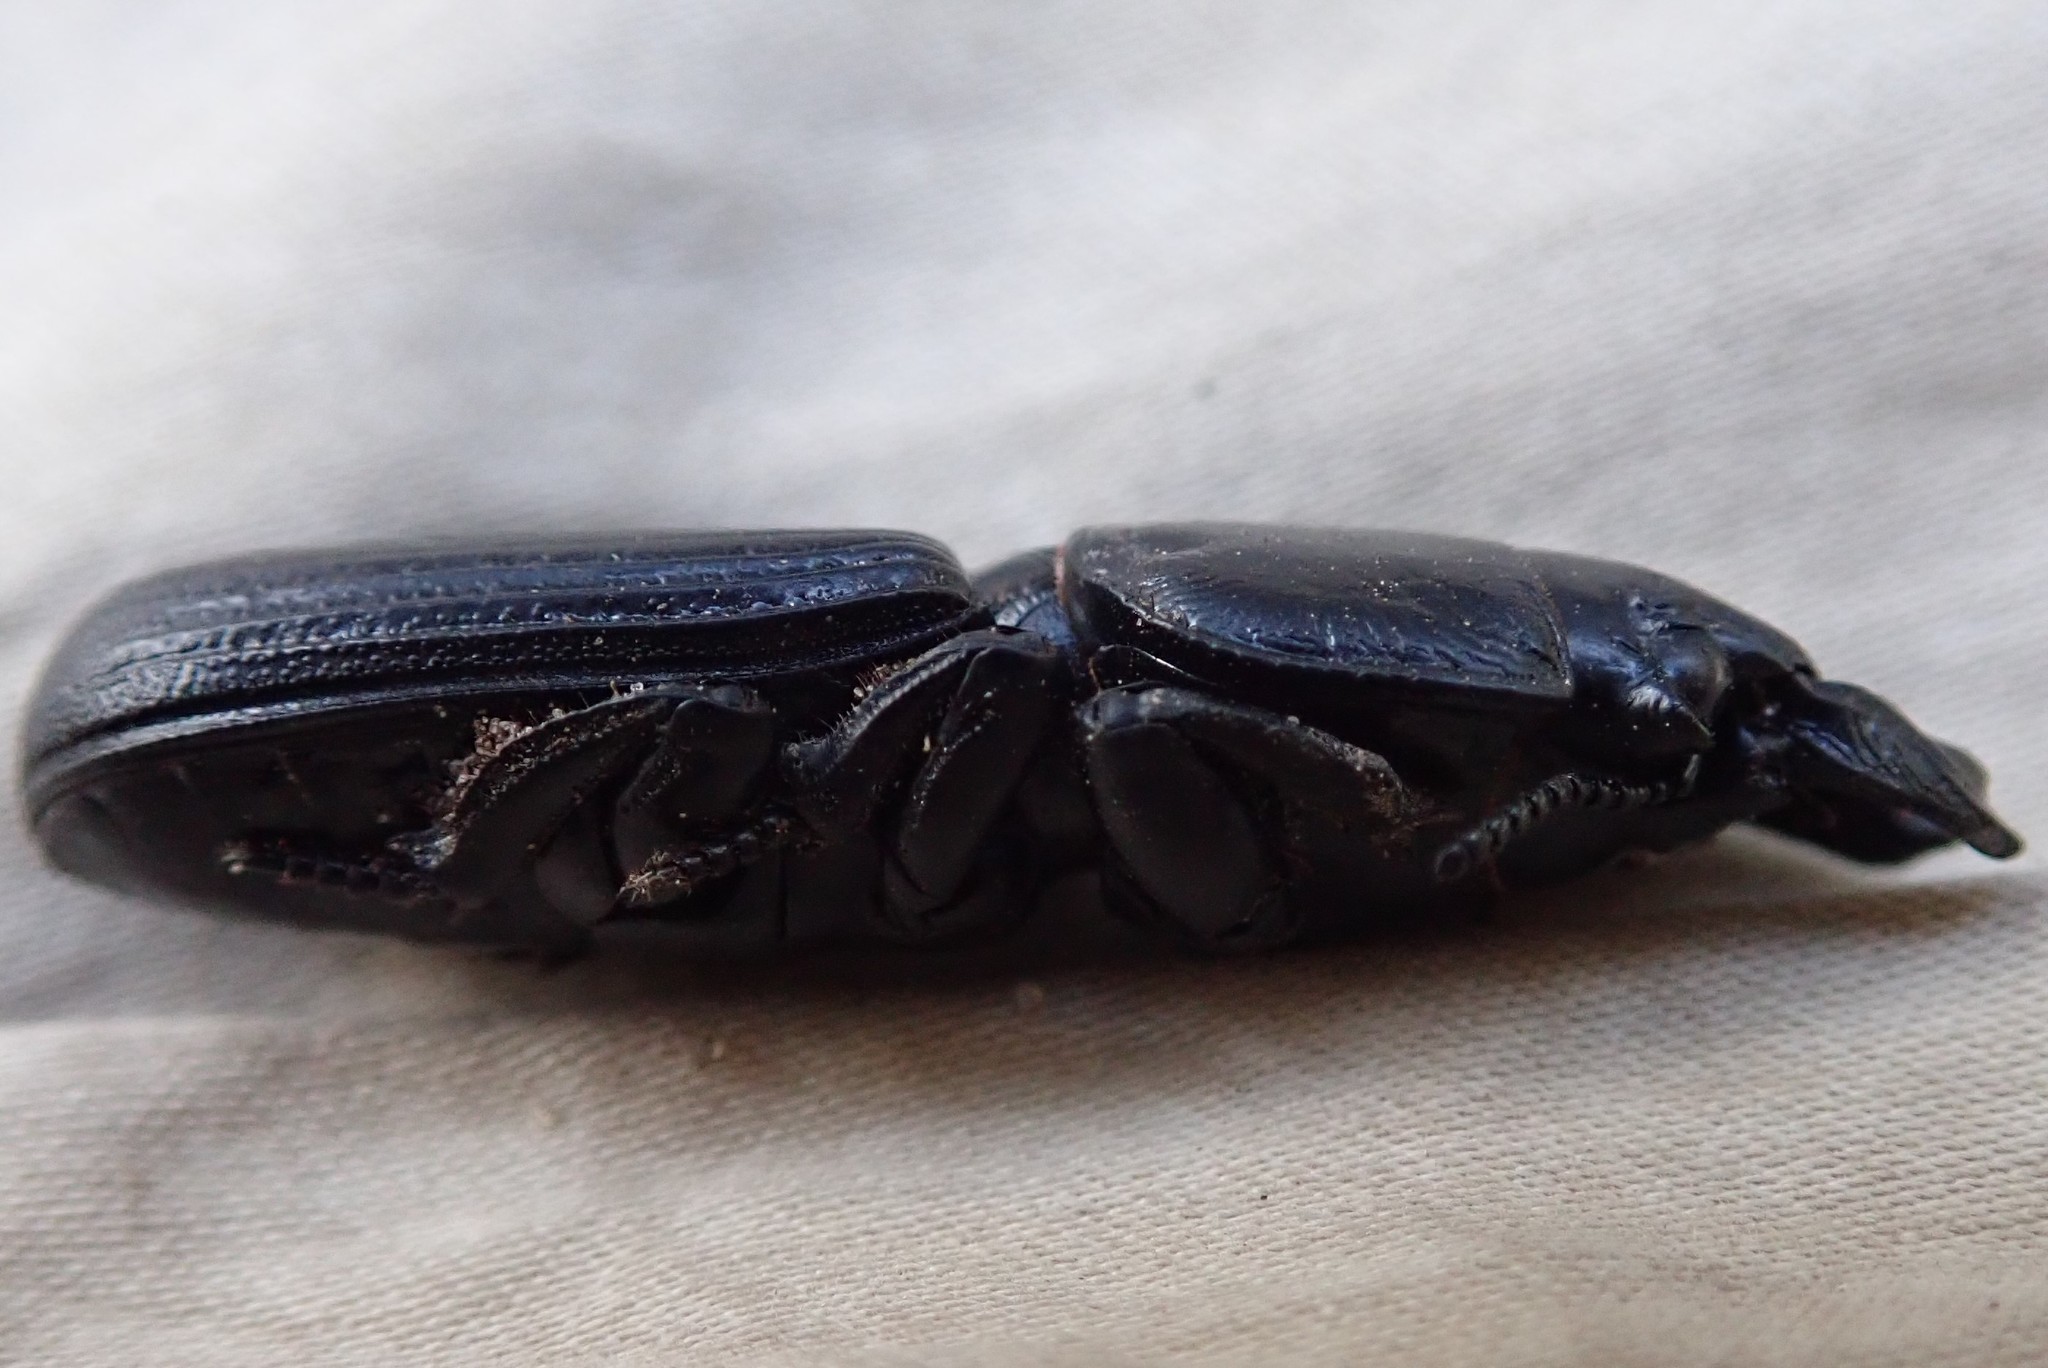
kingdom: Animalia
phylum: Arthropoda
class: Insecta
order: Coleoptera
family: Carabidae
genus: Passalidius
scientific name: Passalidius fortipes
